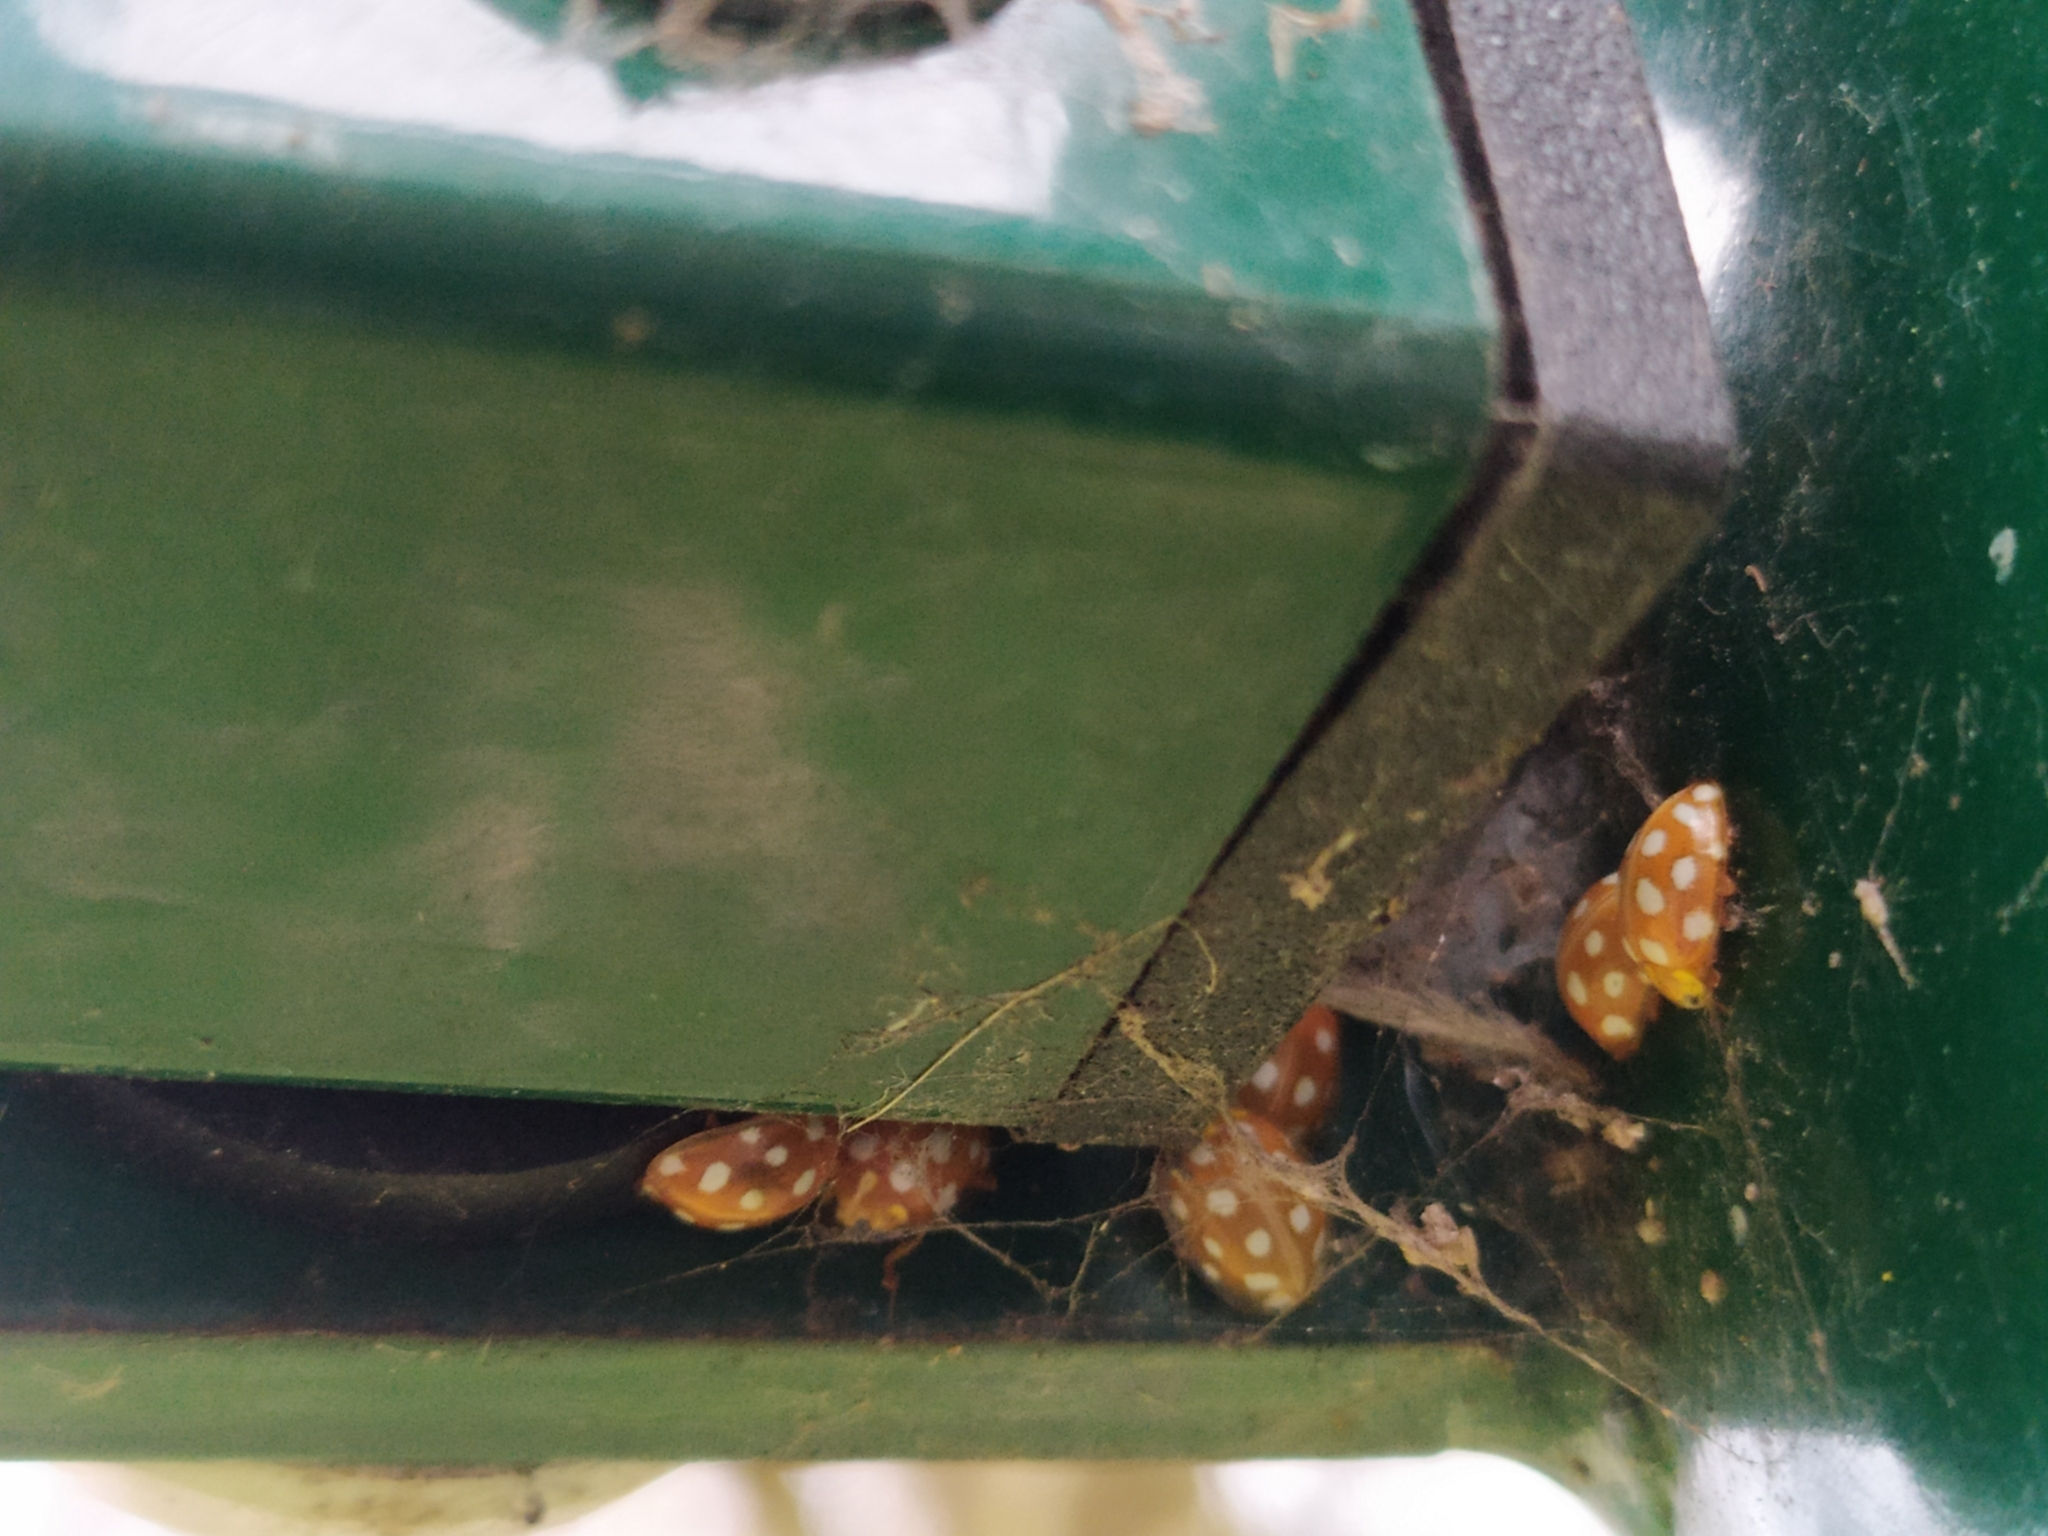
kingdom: Animalia
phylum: Arthropoda
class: Insecta
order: Coleoptera
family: Coccinellidae
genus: Halyzia
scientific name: Halyzia sedecimguttata
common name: Orange ladybird
